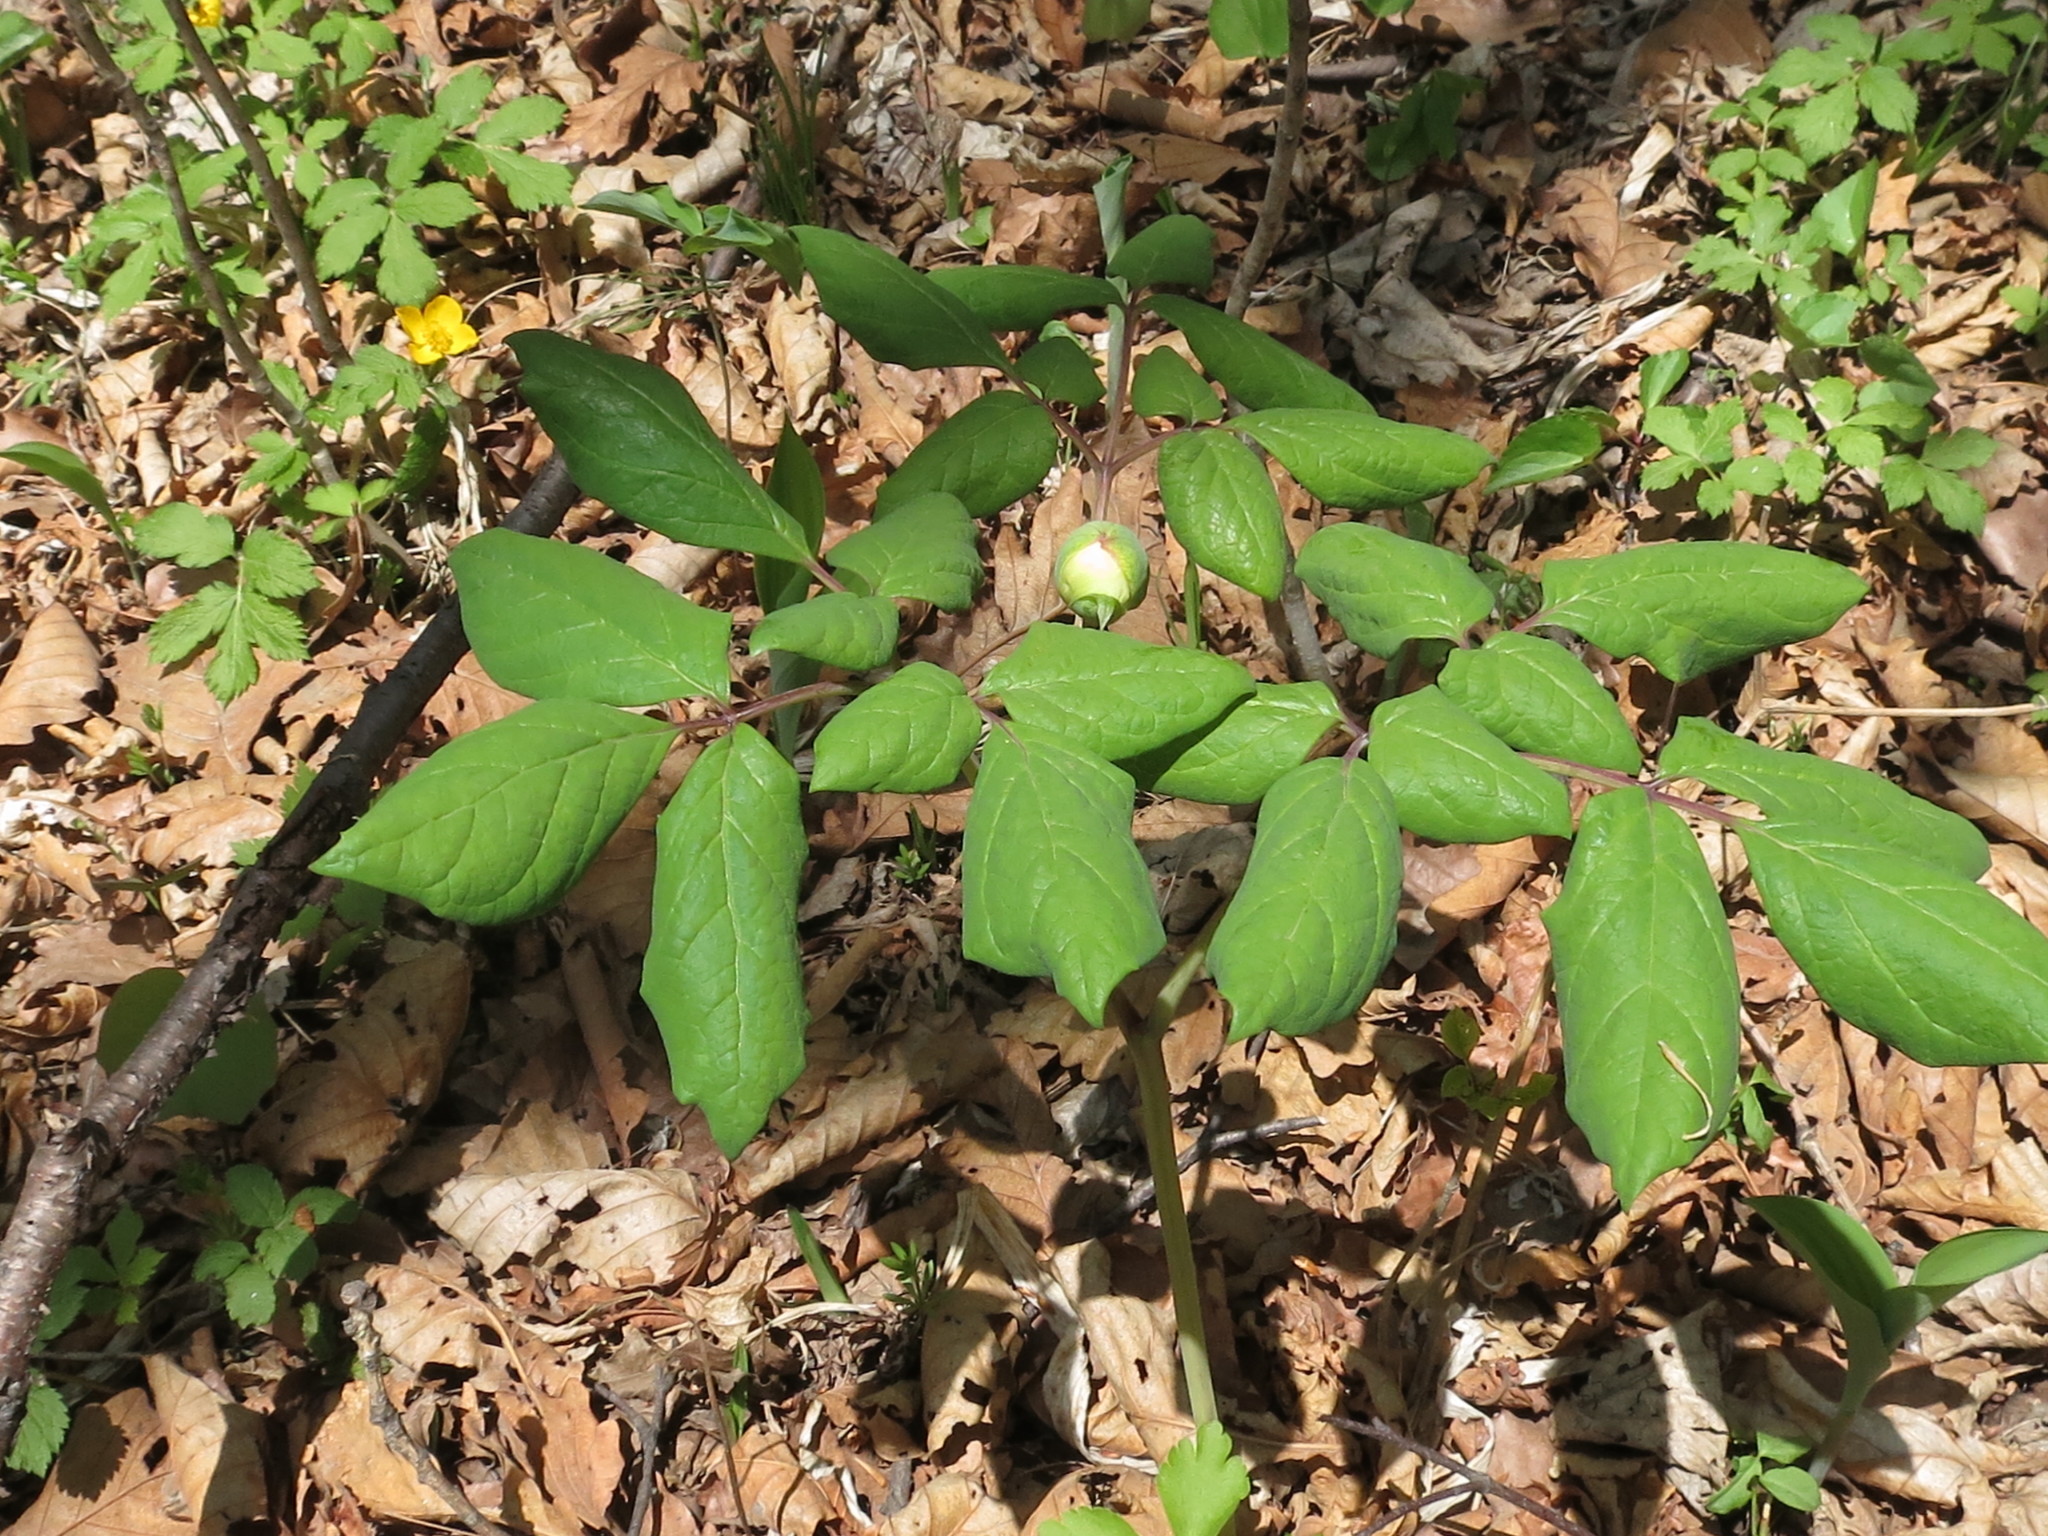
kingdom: Plantae
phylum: Tracheophyta
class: Magnoliopsida
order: Saxifragales
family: Paeoniaceae
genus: Paeonia
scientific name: Paeonia obovata
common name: Chinese peony
